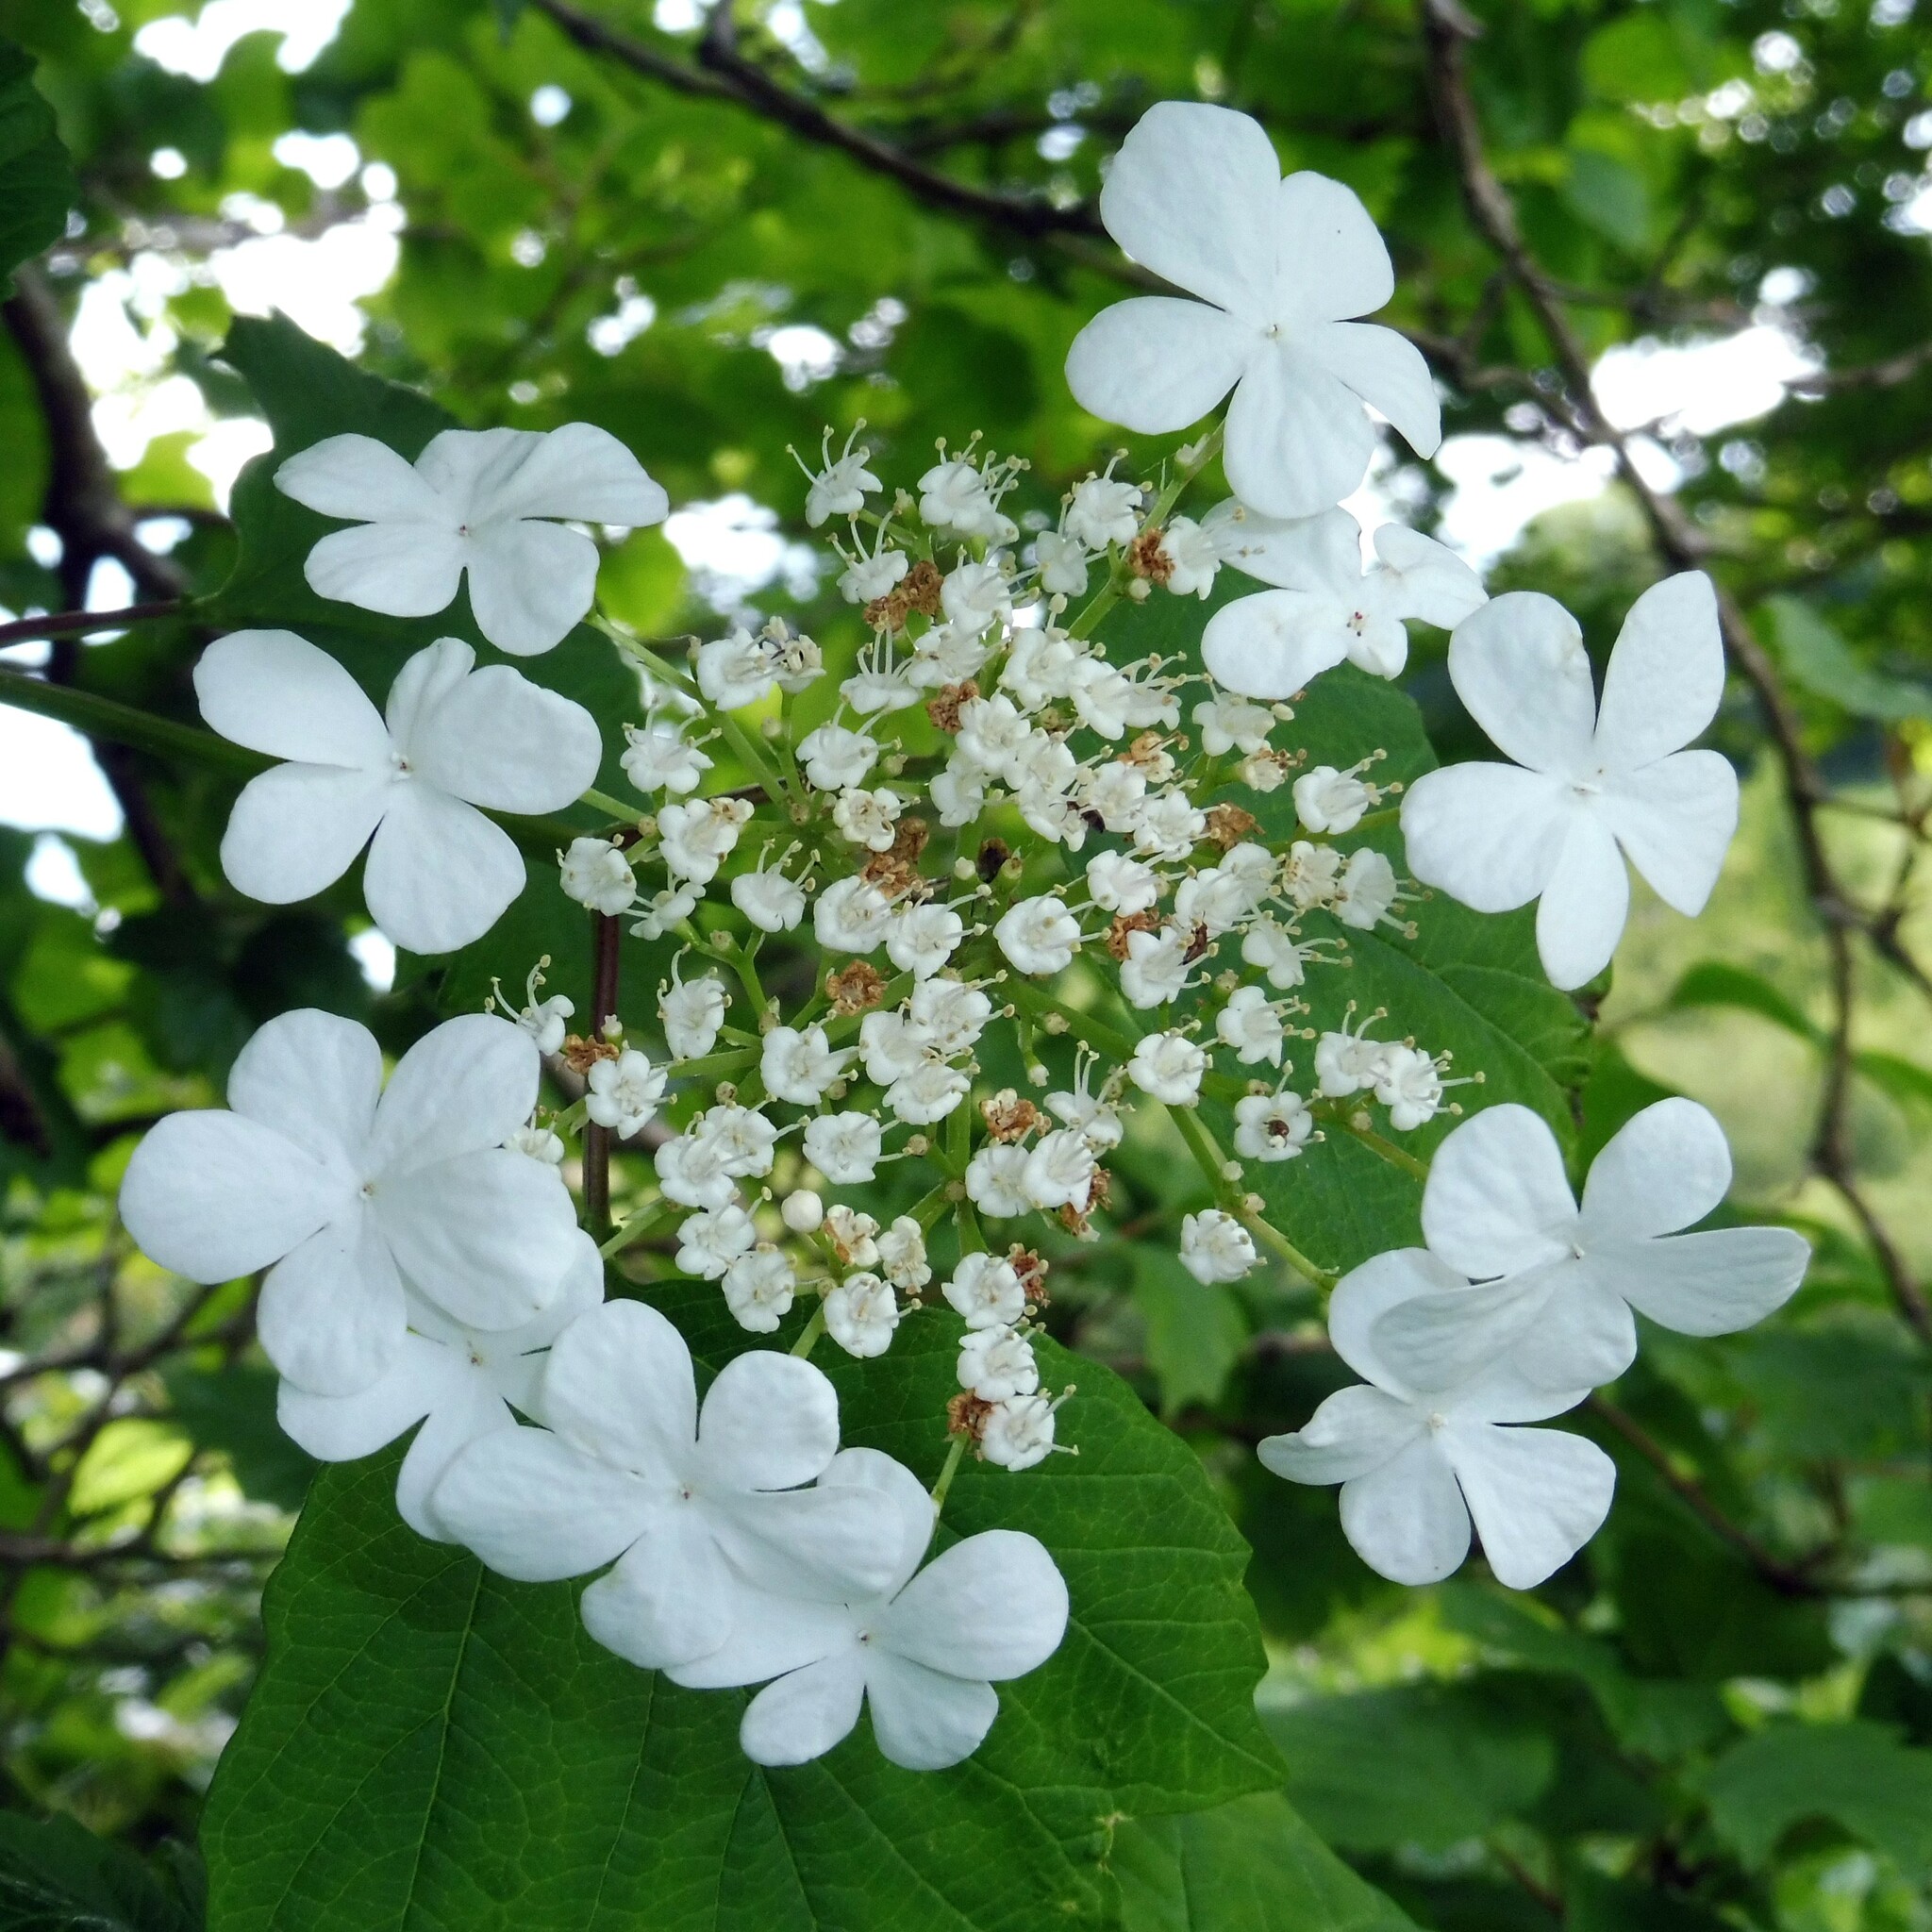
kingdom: Plantae
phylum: Tracheophyta
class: Magnoliopsida
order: Dipsacales
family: Viburnaceae
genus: Viburnum
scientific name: Viburnum opulus
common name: Guelder-rose
